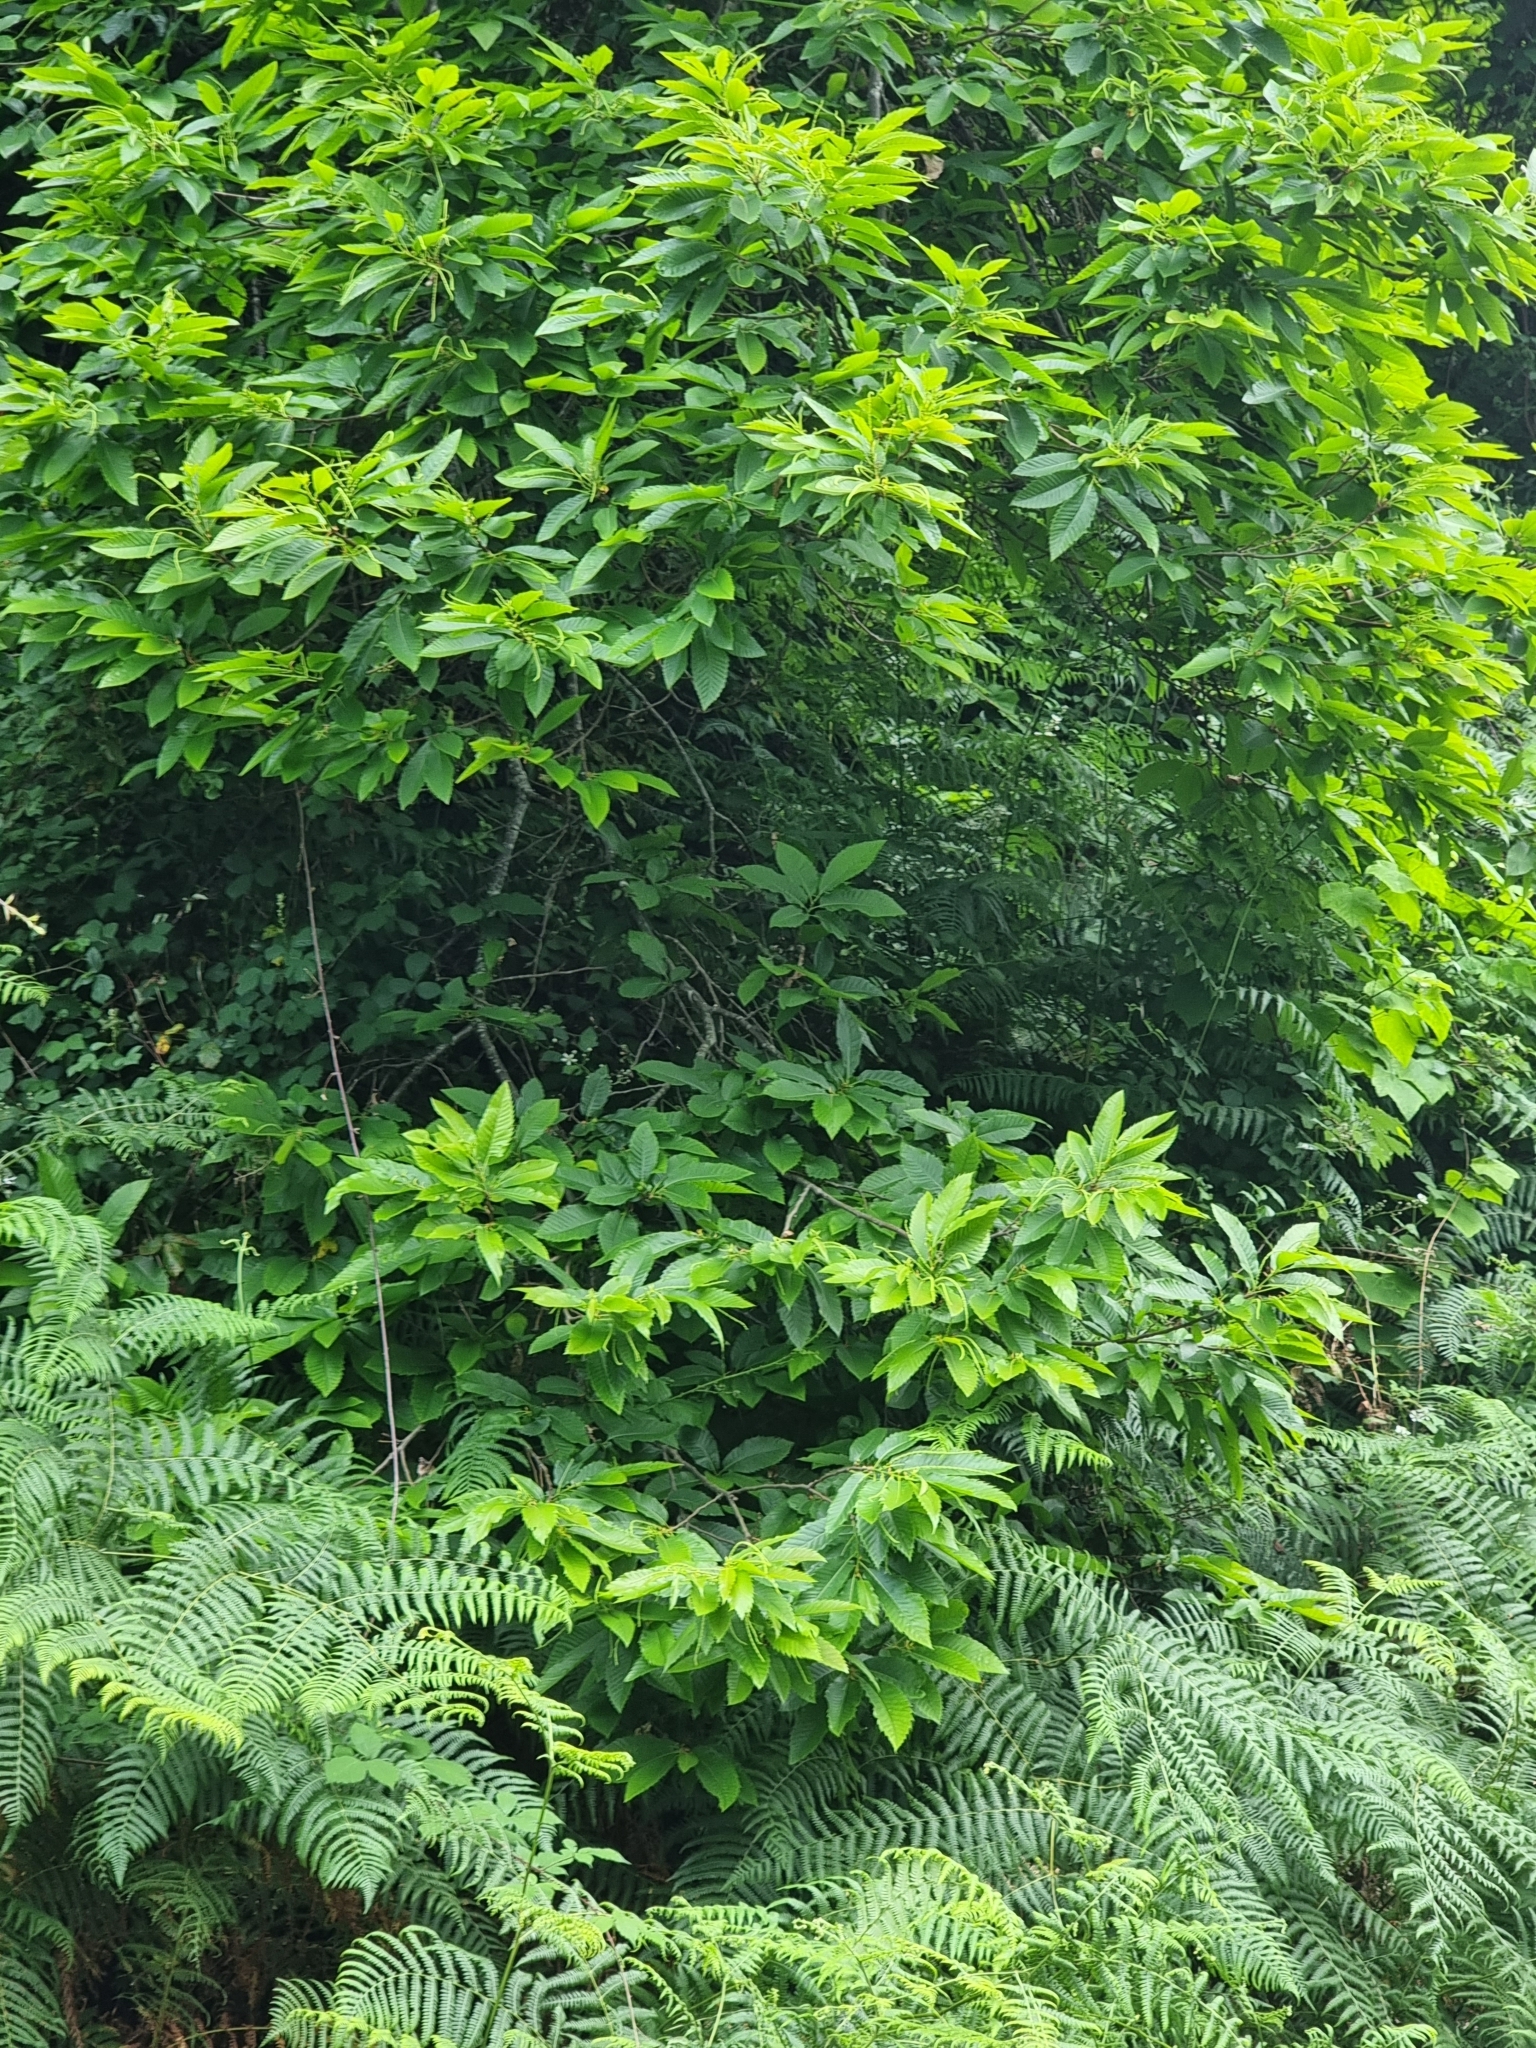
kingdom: Plantae
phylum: Tracheophyta
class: Magnoliopsida
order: Fagales
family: Fagaceae
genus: Castanea
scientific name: Castanea sativa
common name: Sweet chestnut
